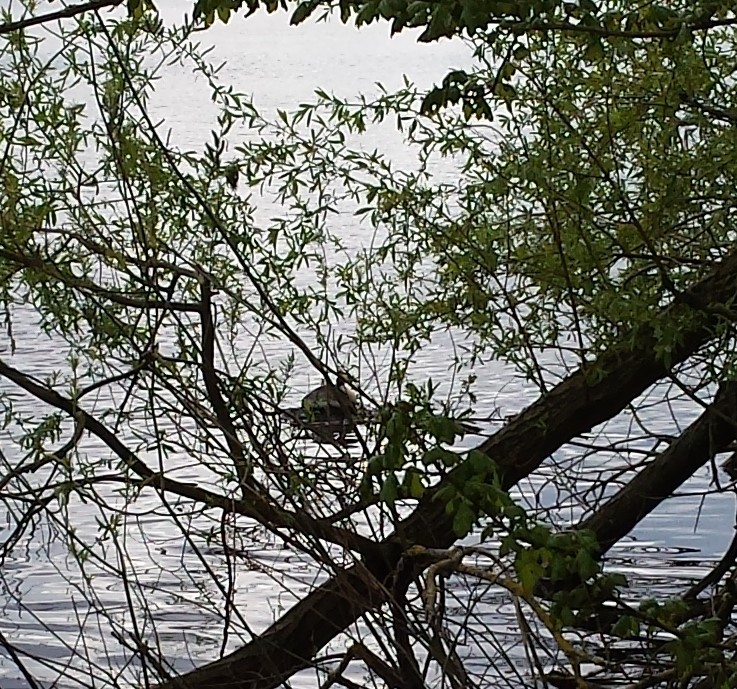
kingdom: Animalia
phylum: Chordata
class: Aves
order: Podicipediformes
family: Podicipedidae
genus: Podiceps
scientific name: Podiceps cristatus
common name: Great crested grebe
